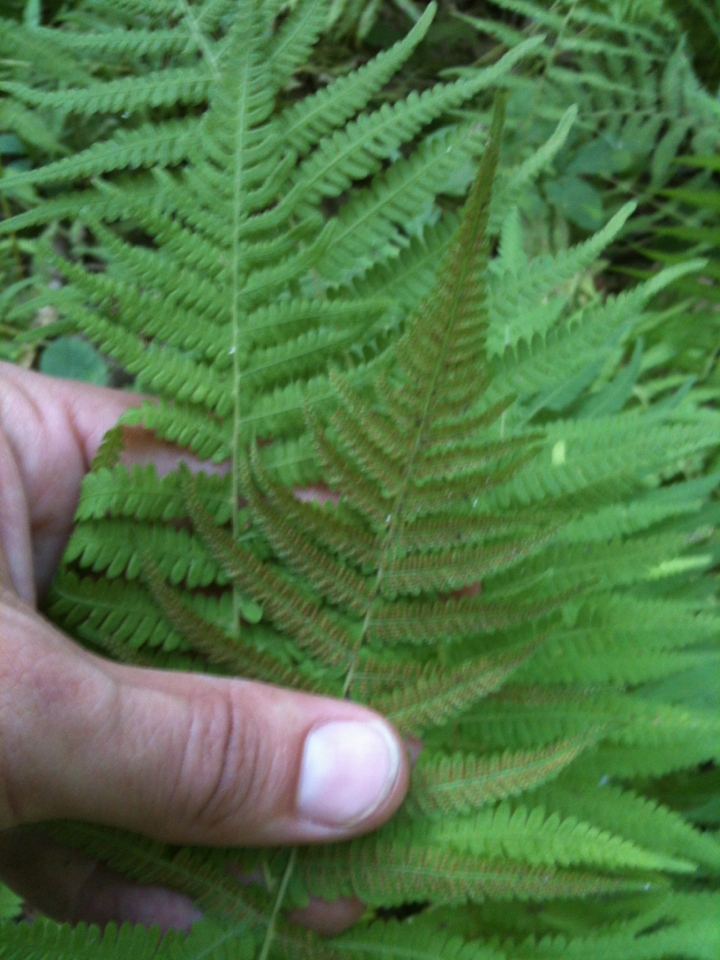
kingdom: Plantae
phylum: Tracheophyta
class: Polypodiopsida
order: Polypodiales
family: Dennstaedtiaceae
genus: Sitobolium
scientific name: Sitobolium punctilobum
